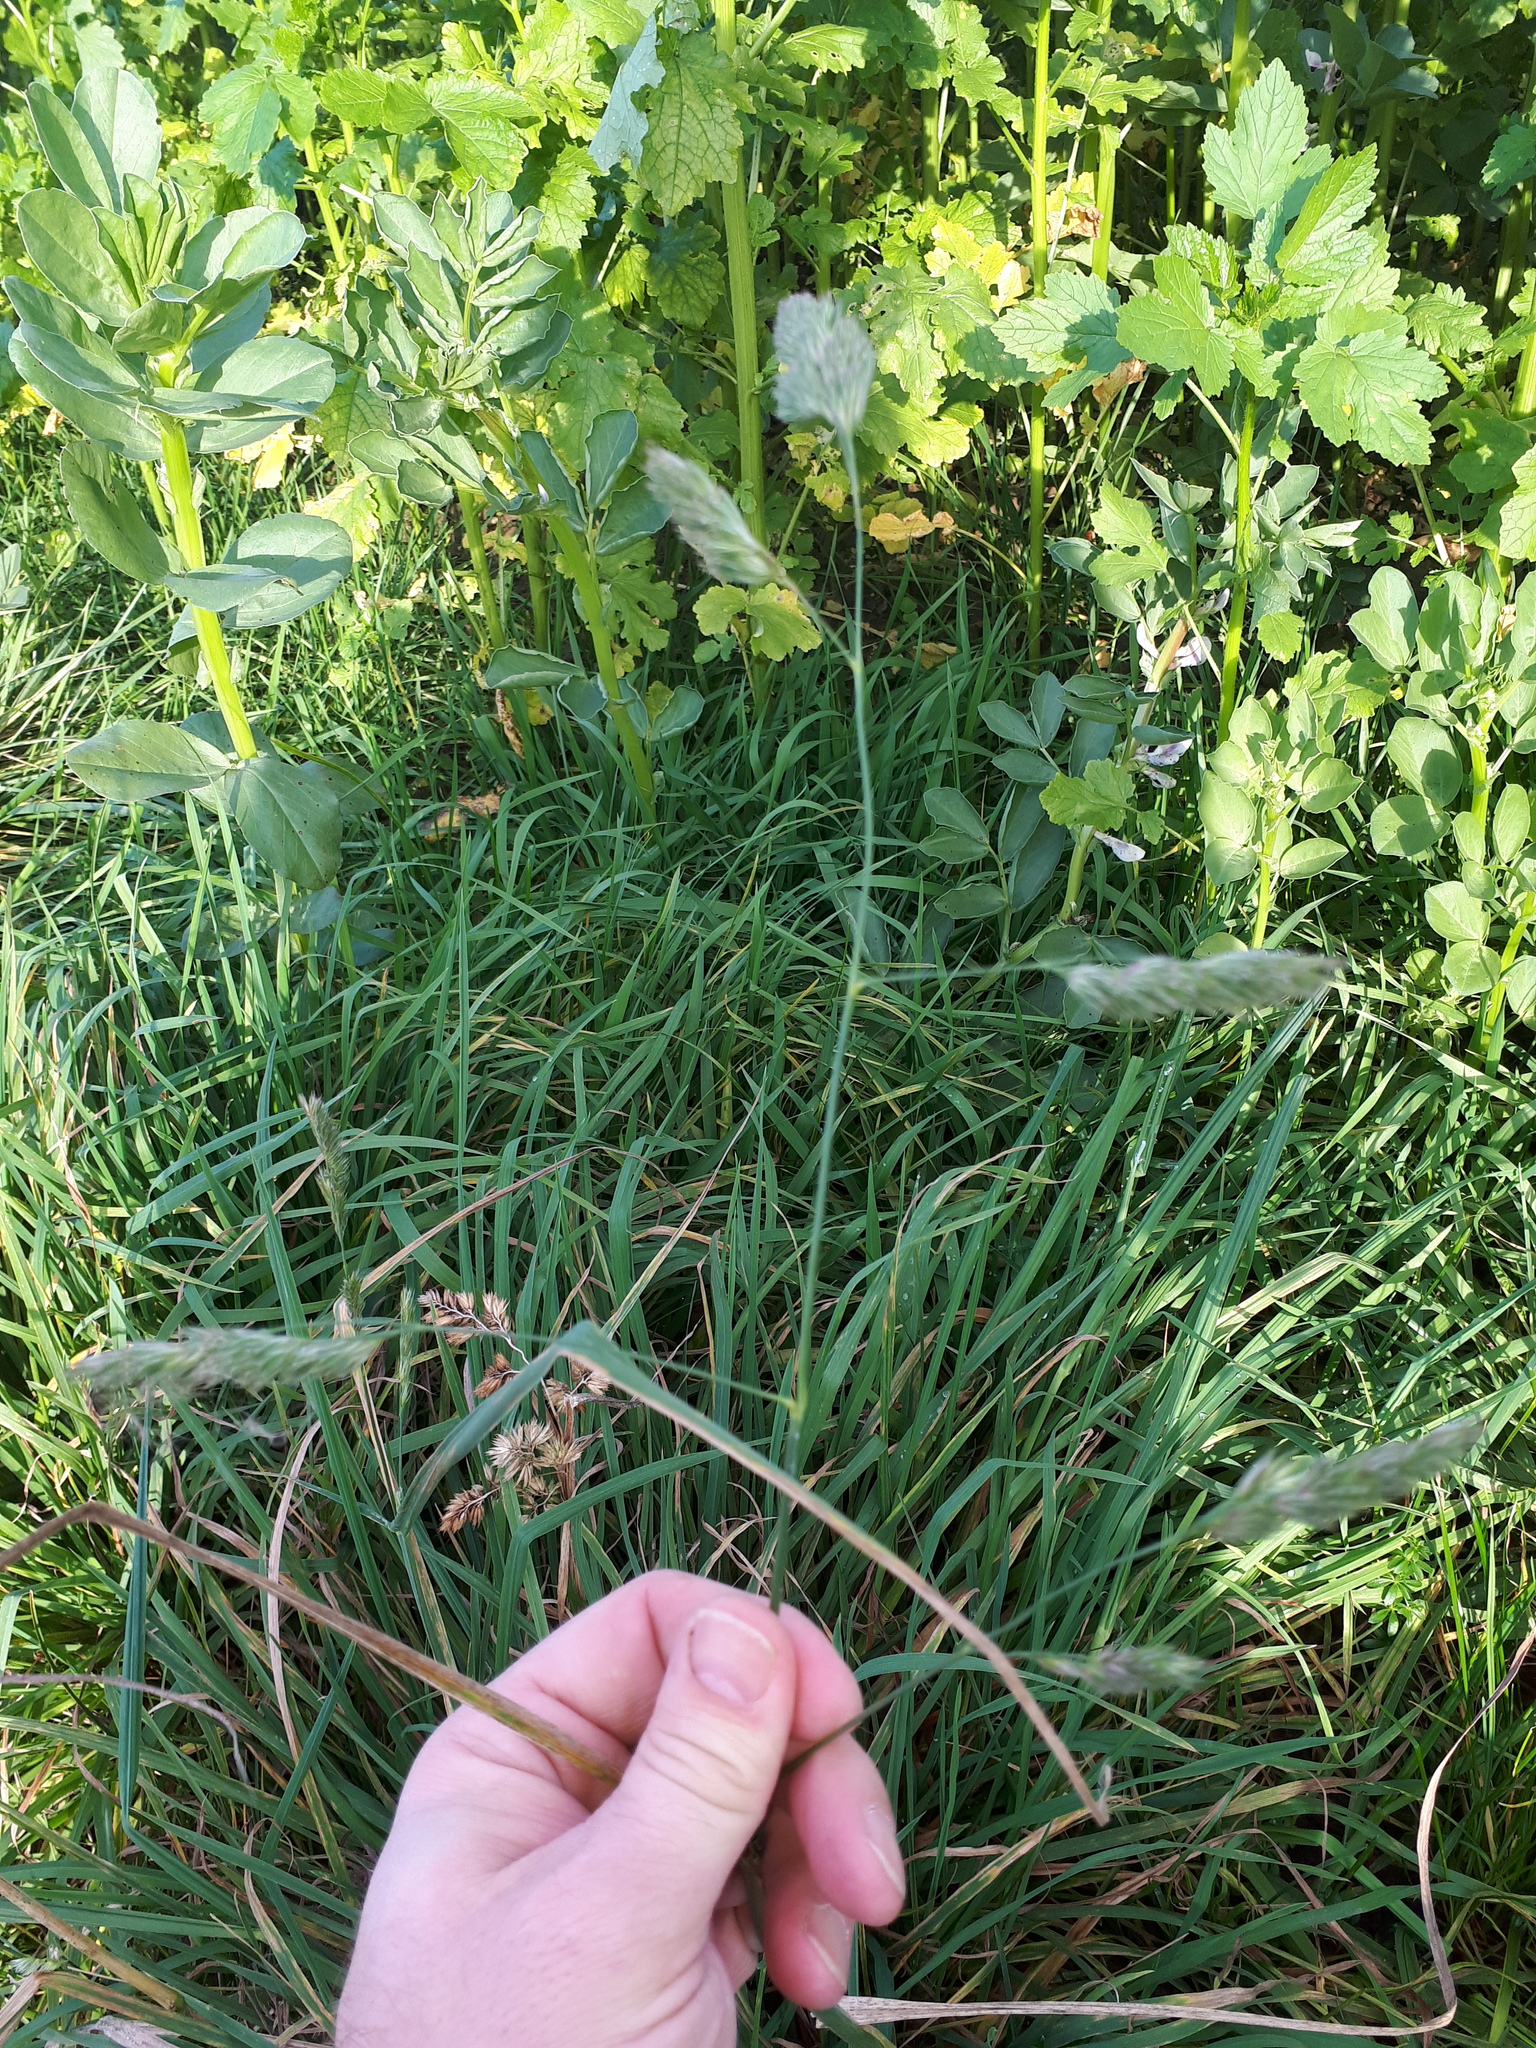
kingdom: Plantae
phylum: Tracheophyta
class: Liliopsida
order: Poales
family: Poaceae
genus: Dactylis
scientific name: Dactylis glomerata
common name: Orchardgrass
